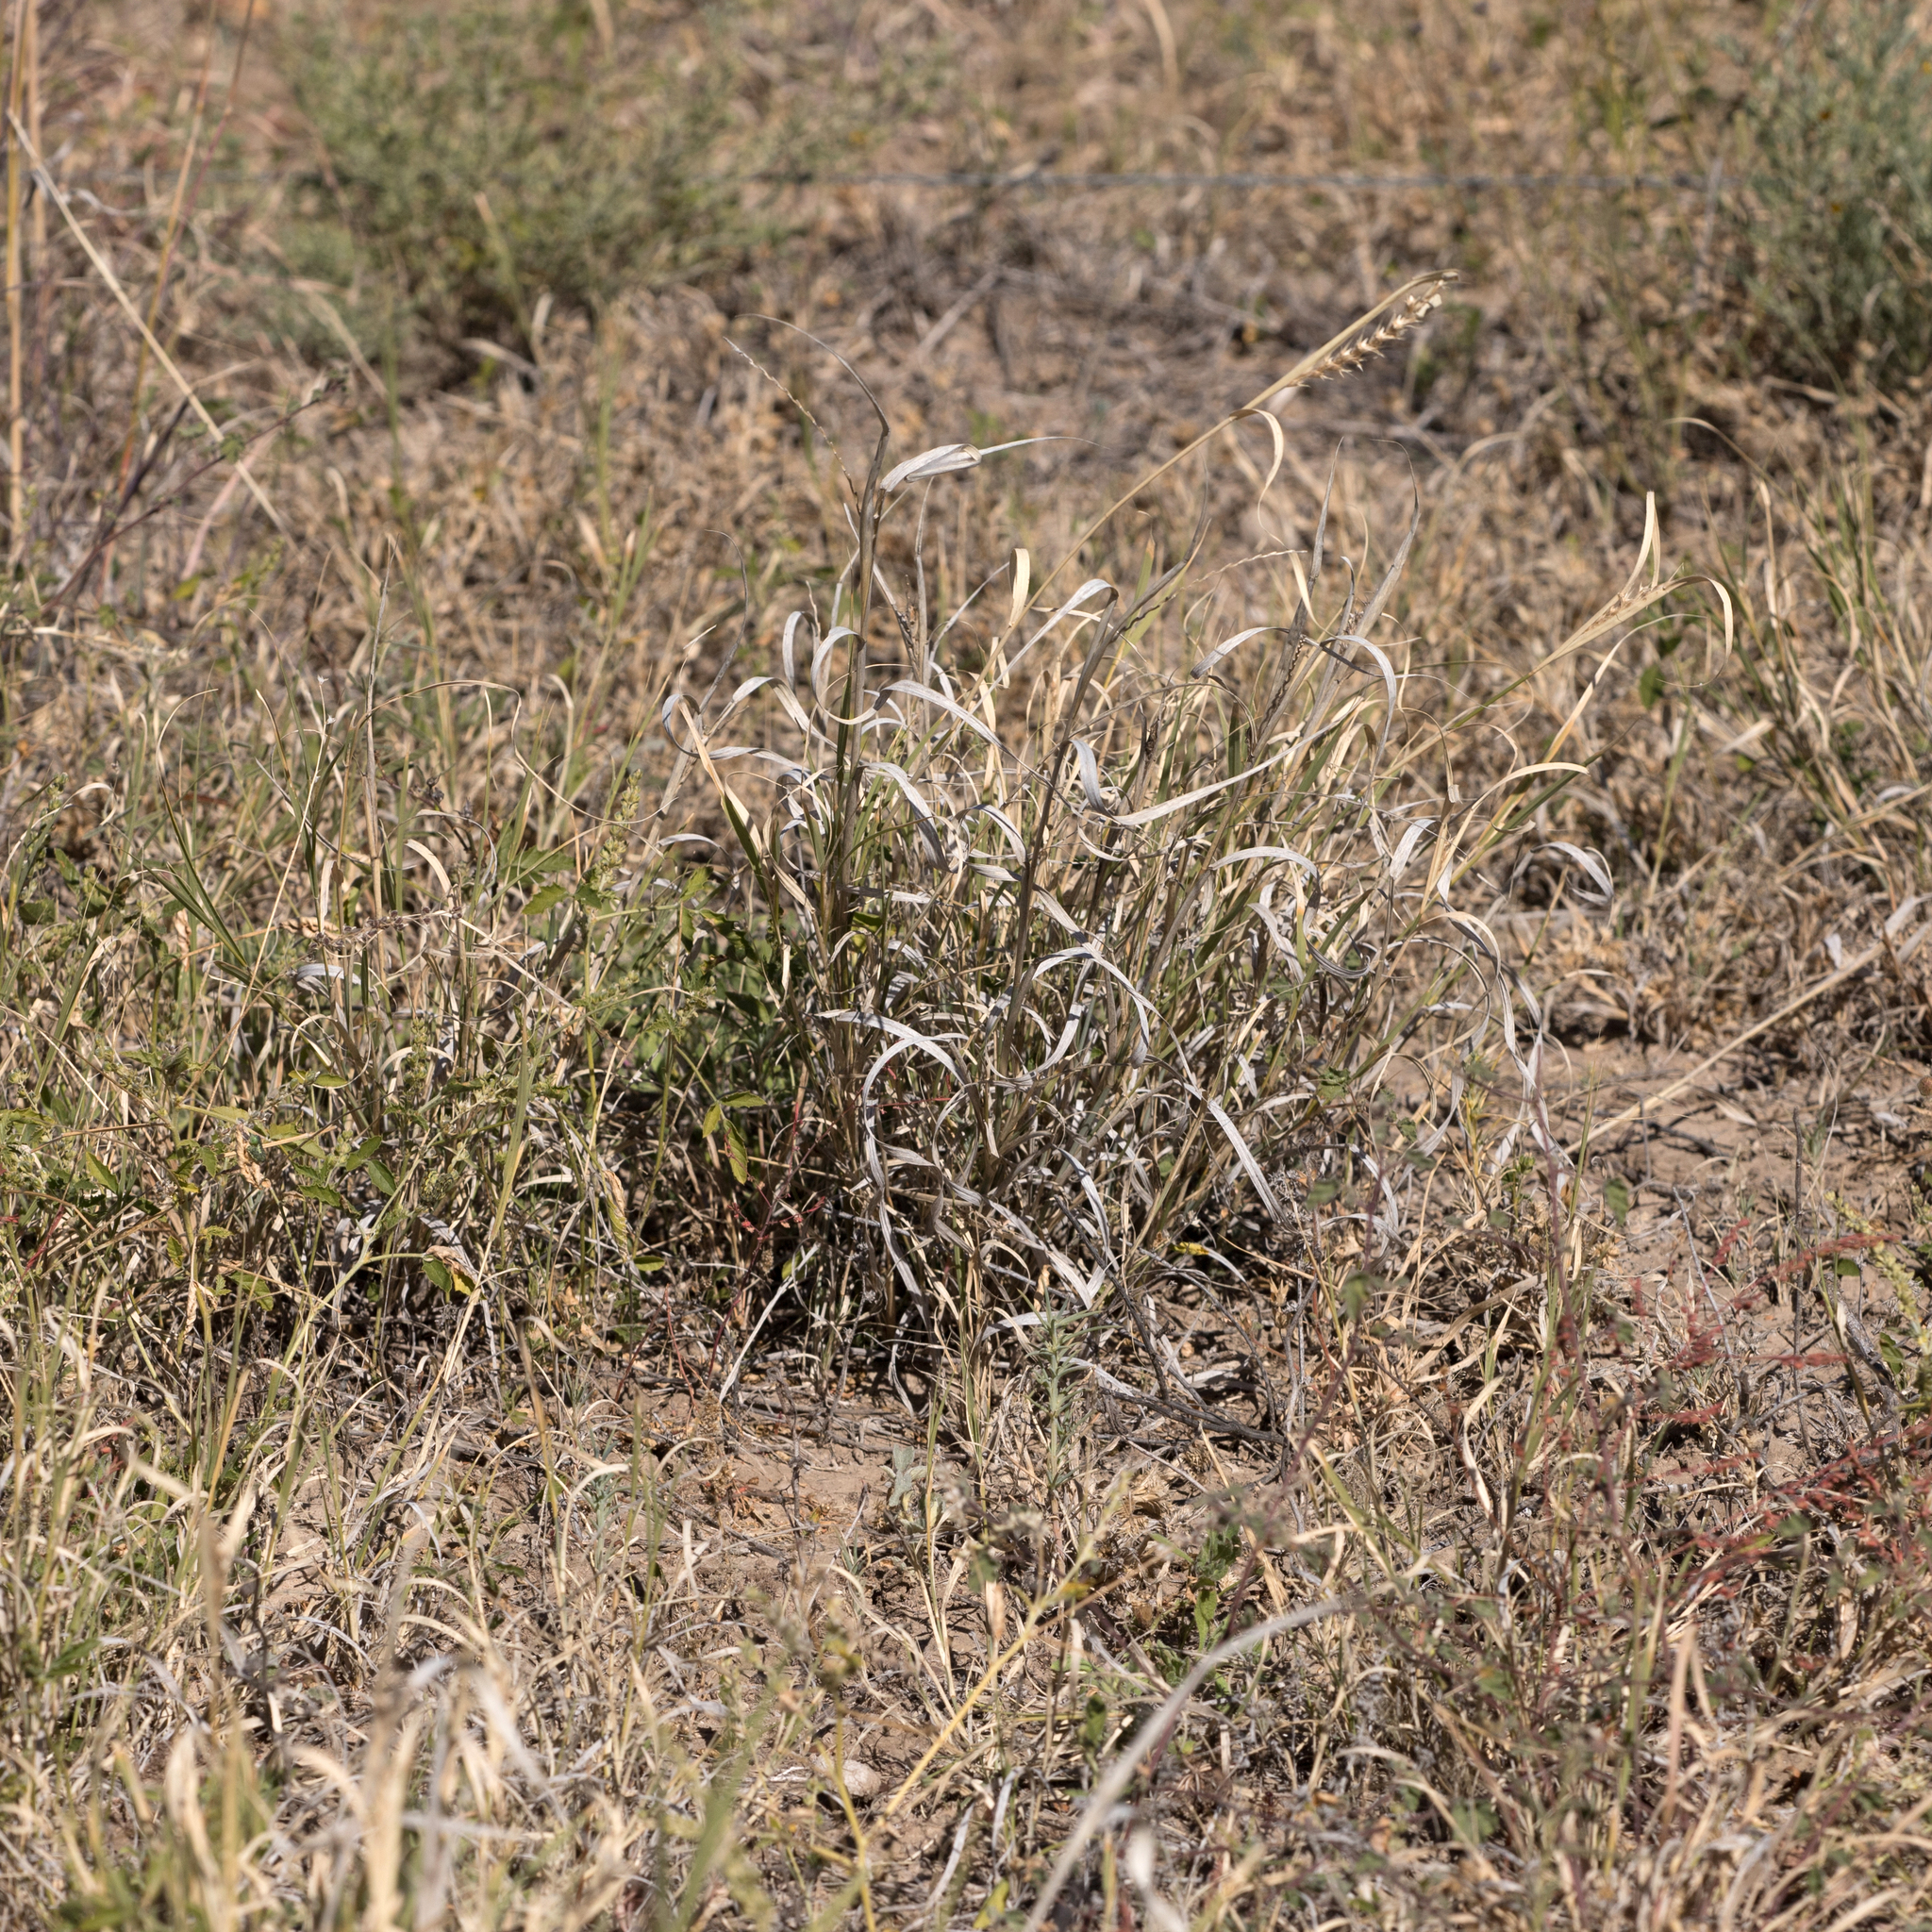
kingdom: Plantae
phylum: Tracheophyta
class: Liliopsida
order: Poales
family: Poaceae
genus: Astrebla
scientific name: Astrebla lappacea
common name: Curly mitchell grass
